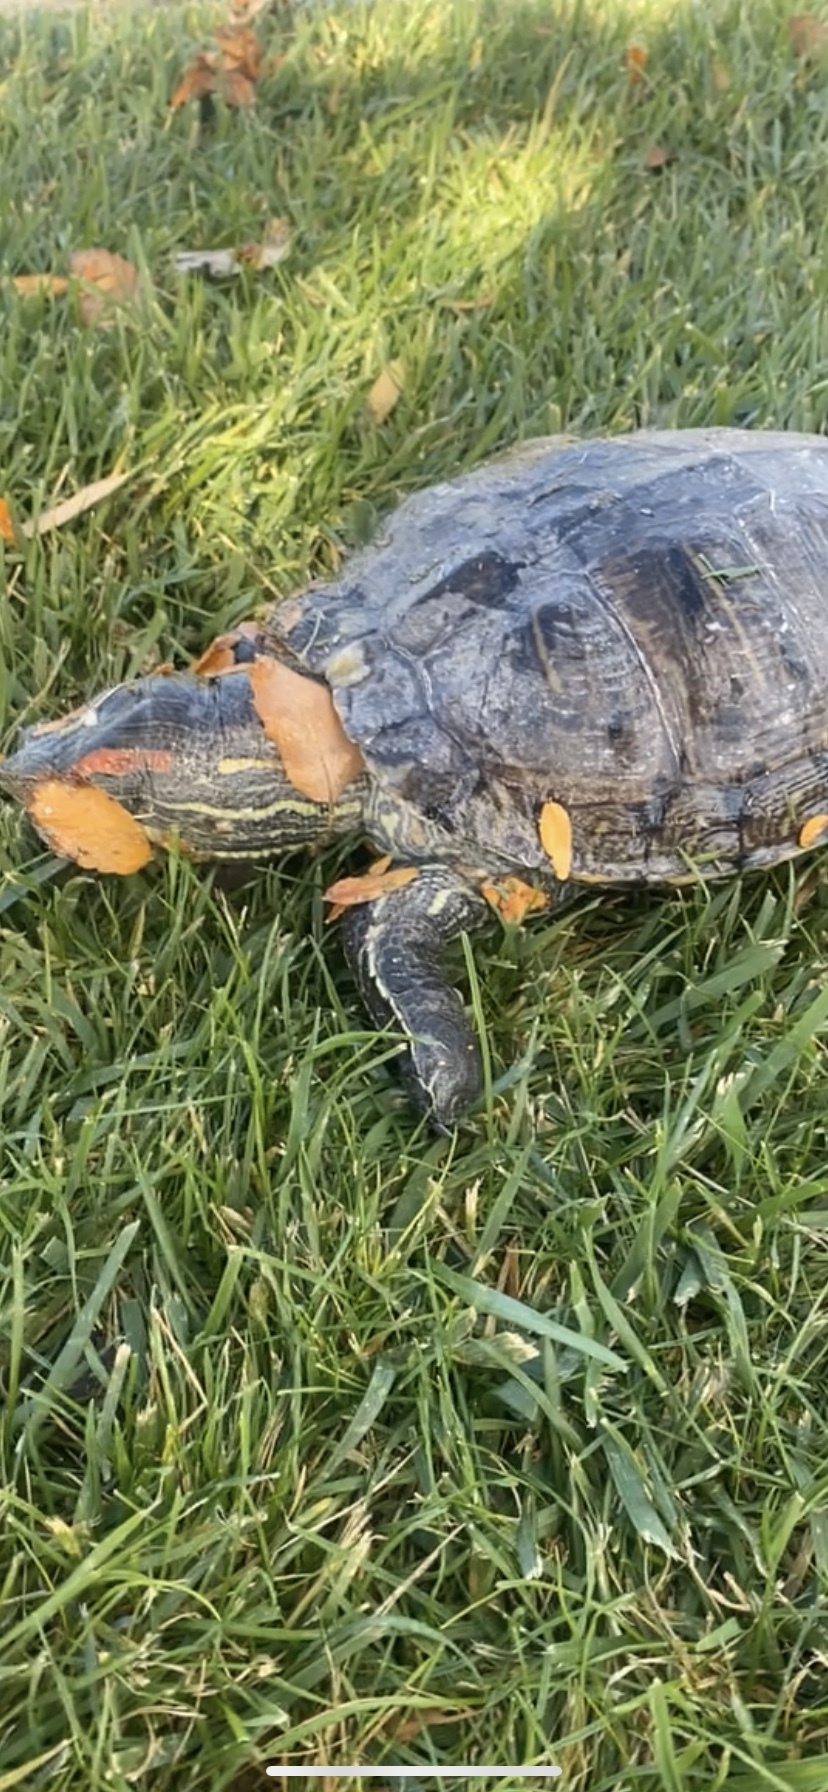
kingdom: Animalia
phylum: Chordata
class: Testudines
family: Emydidae
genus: Trachemys
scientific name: Trachemys scripta
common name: Slider
